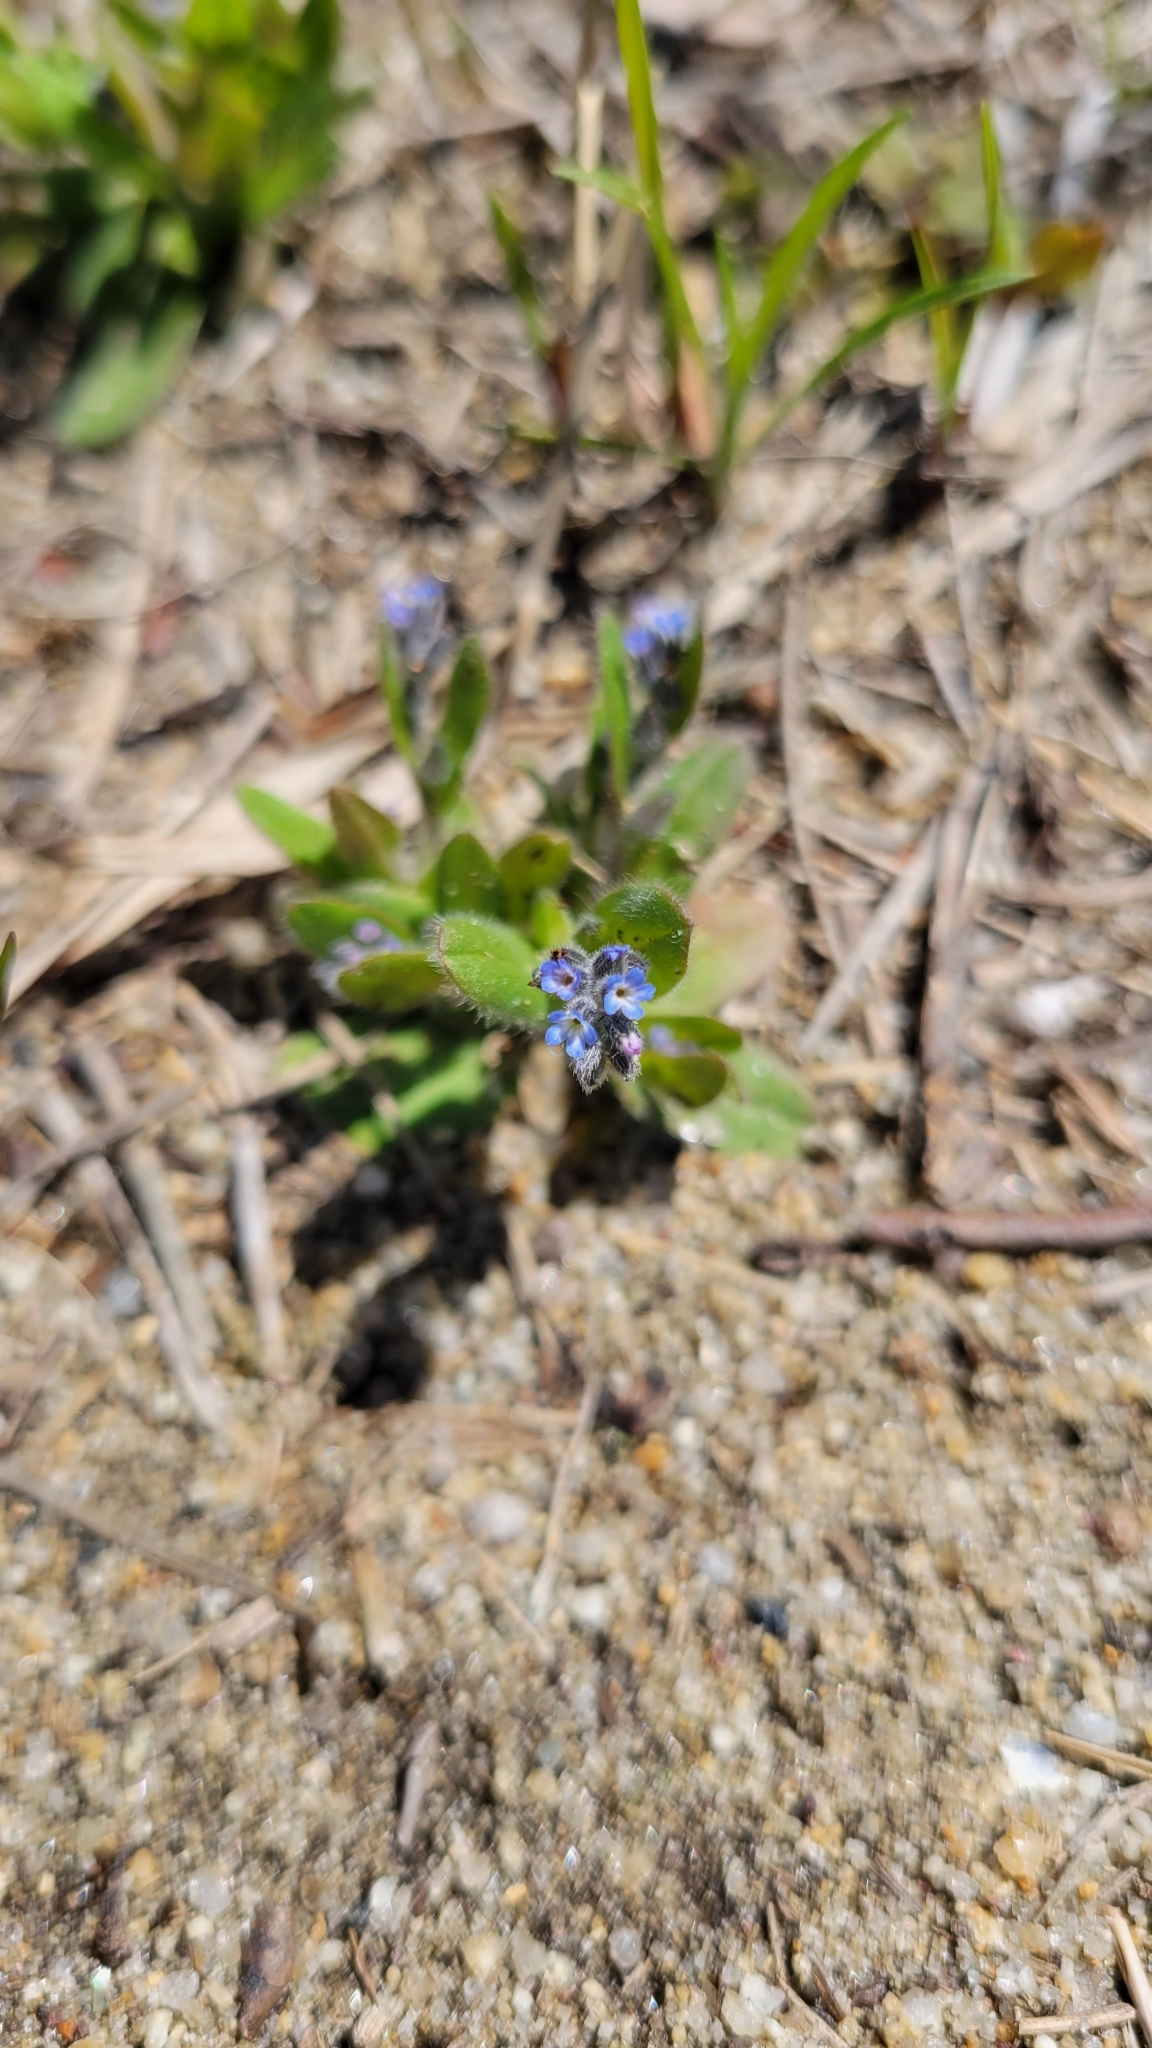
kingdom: Plantae
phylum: Tracheophyta
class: Magnoliopsida
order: Boraginales
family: Boraginaceae
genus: Myosotis
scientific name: Myosotis stricta
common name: Strict forget-me-not
